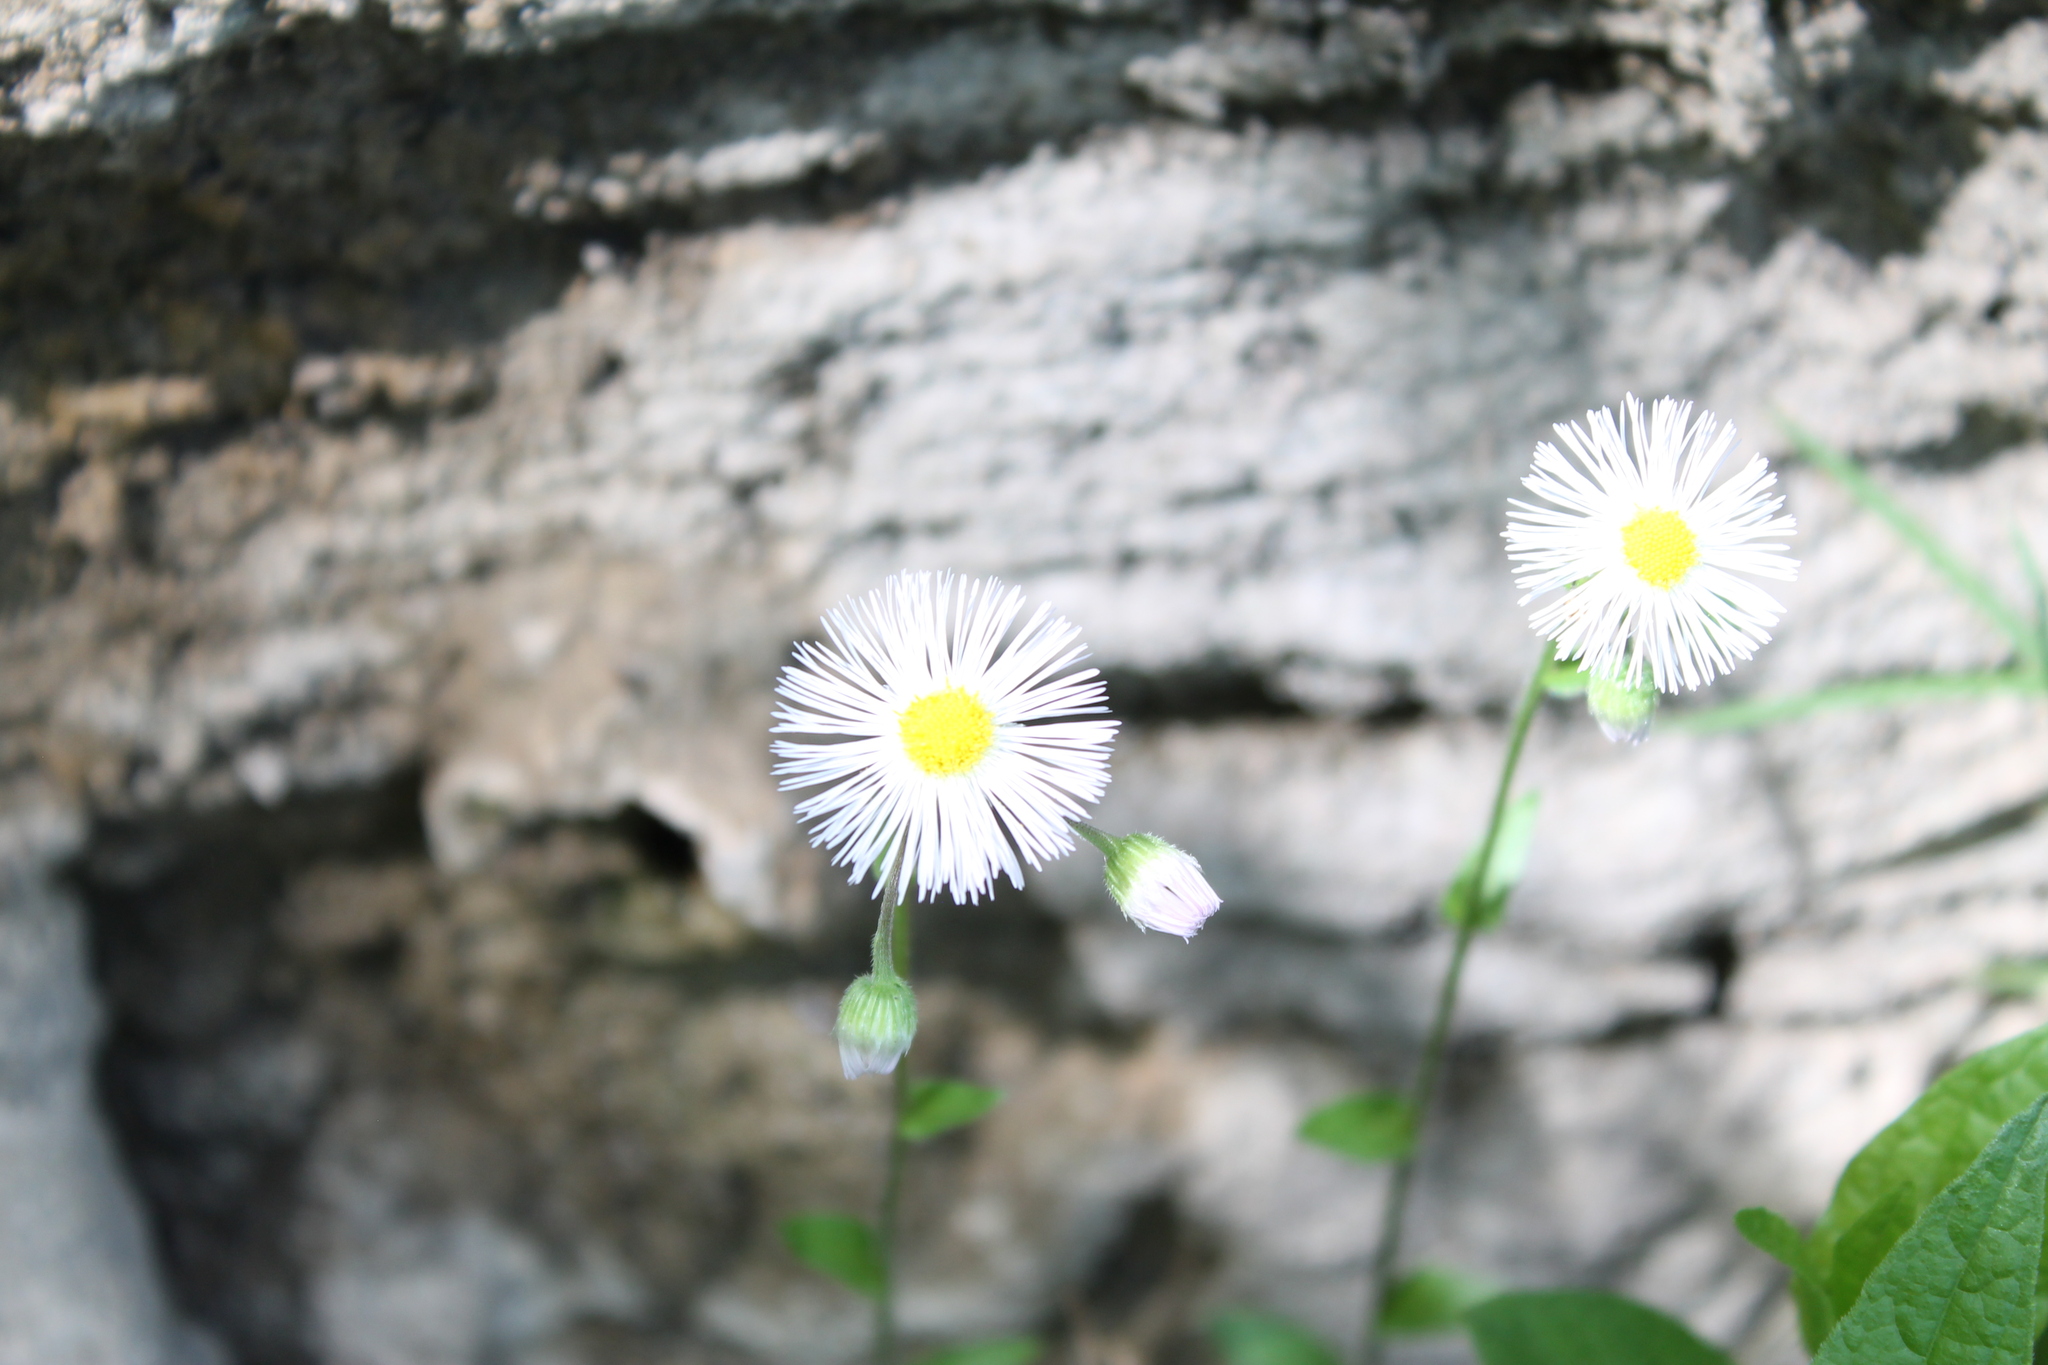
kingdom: Plantae
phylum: Tracheophyta
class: Magnoliopsida
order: Asterales
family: Asteraceae
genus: Erigeron
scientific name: Erigeron philadelphicus
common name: Robin's-plantain
